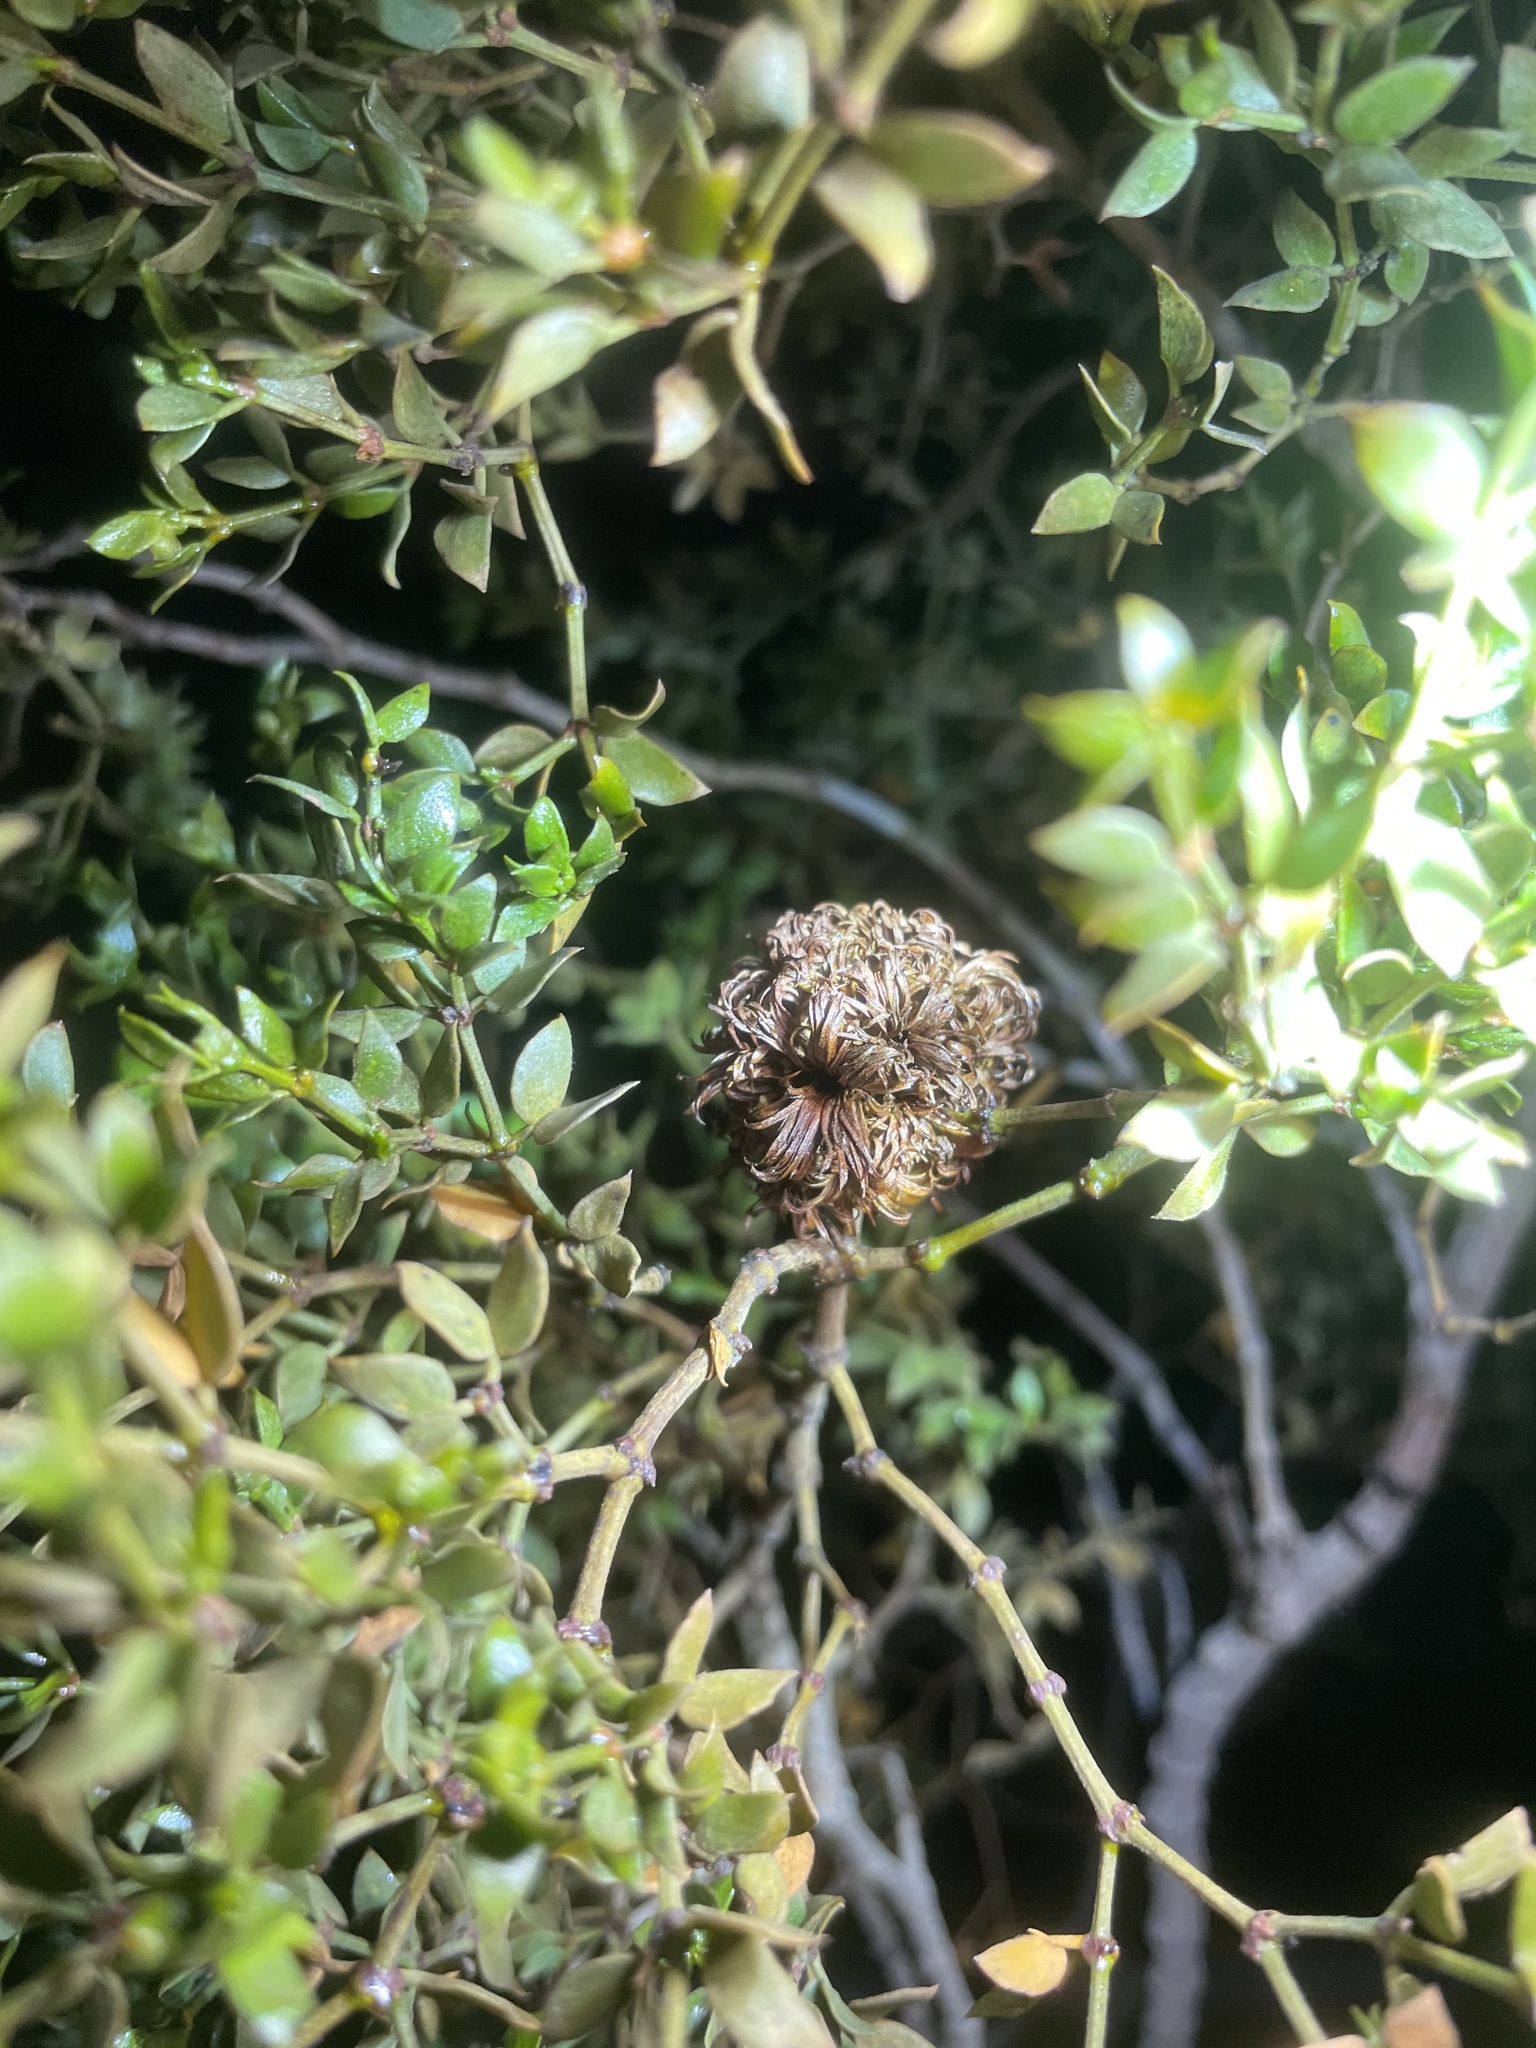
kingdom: Animalia
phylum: Arthropoda
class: Insecta
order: Diptera
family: Cecidomyiidae
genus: Asphondylia
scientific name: Asphondylia auripila
